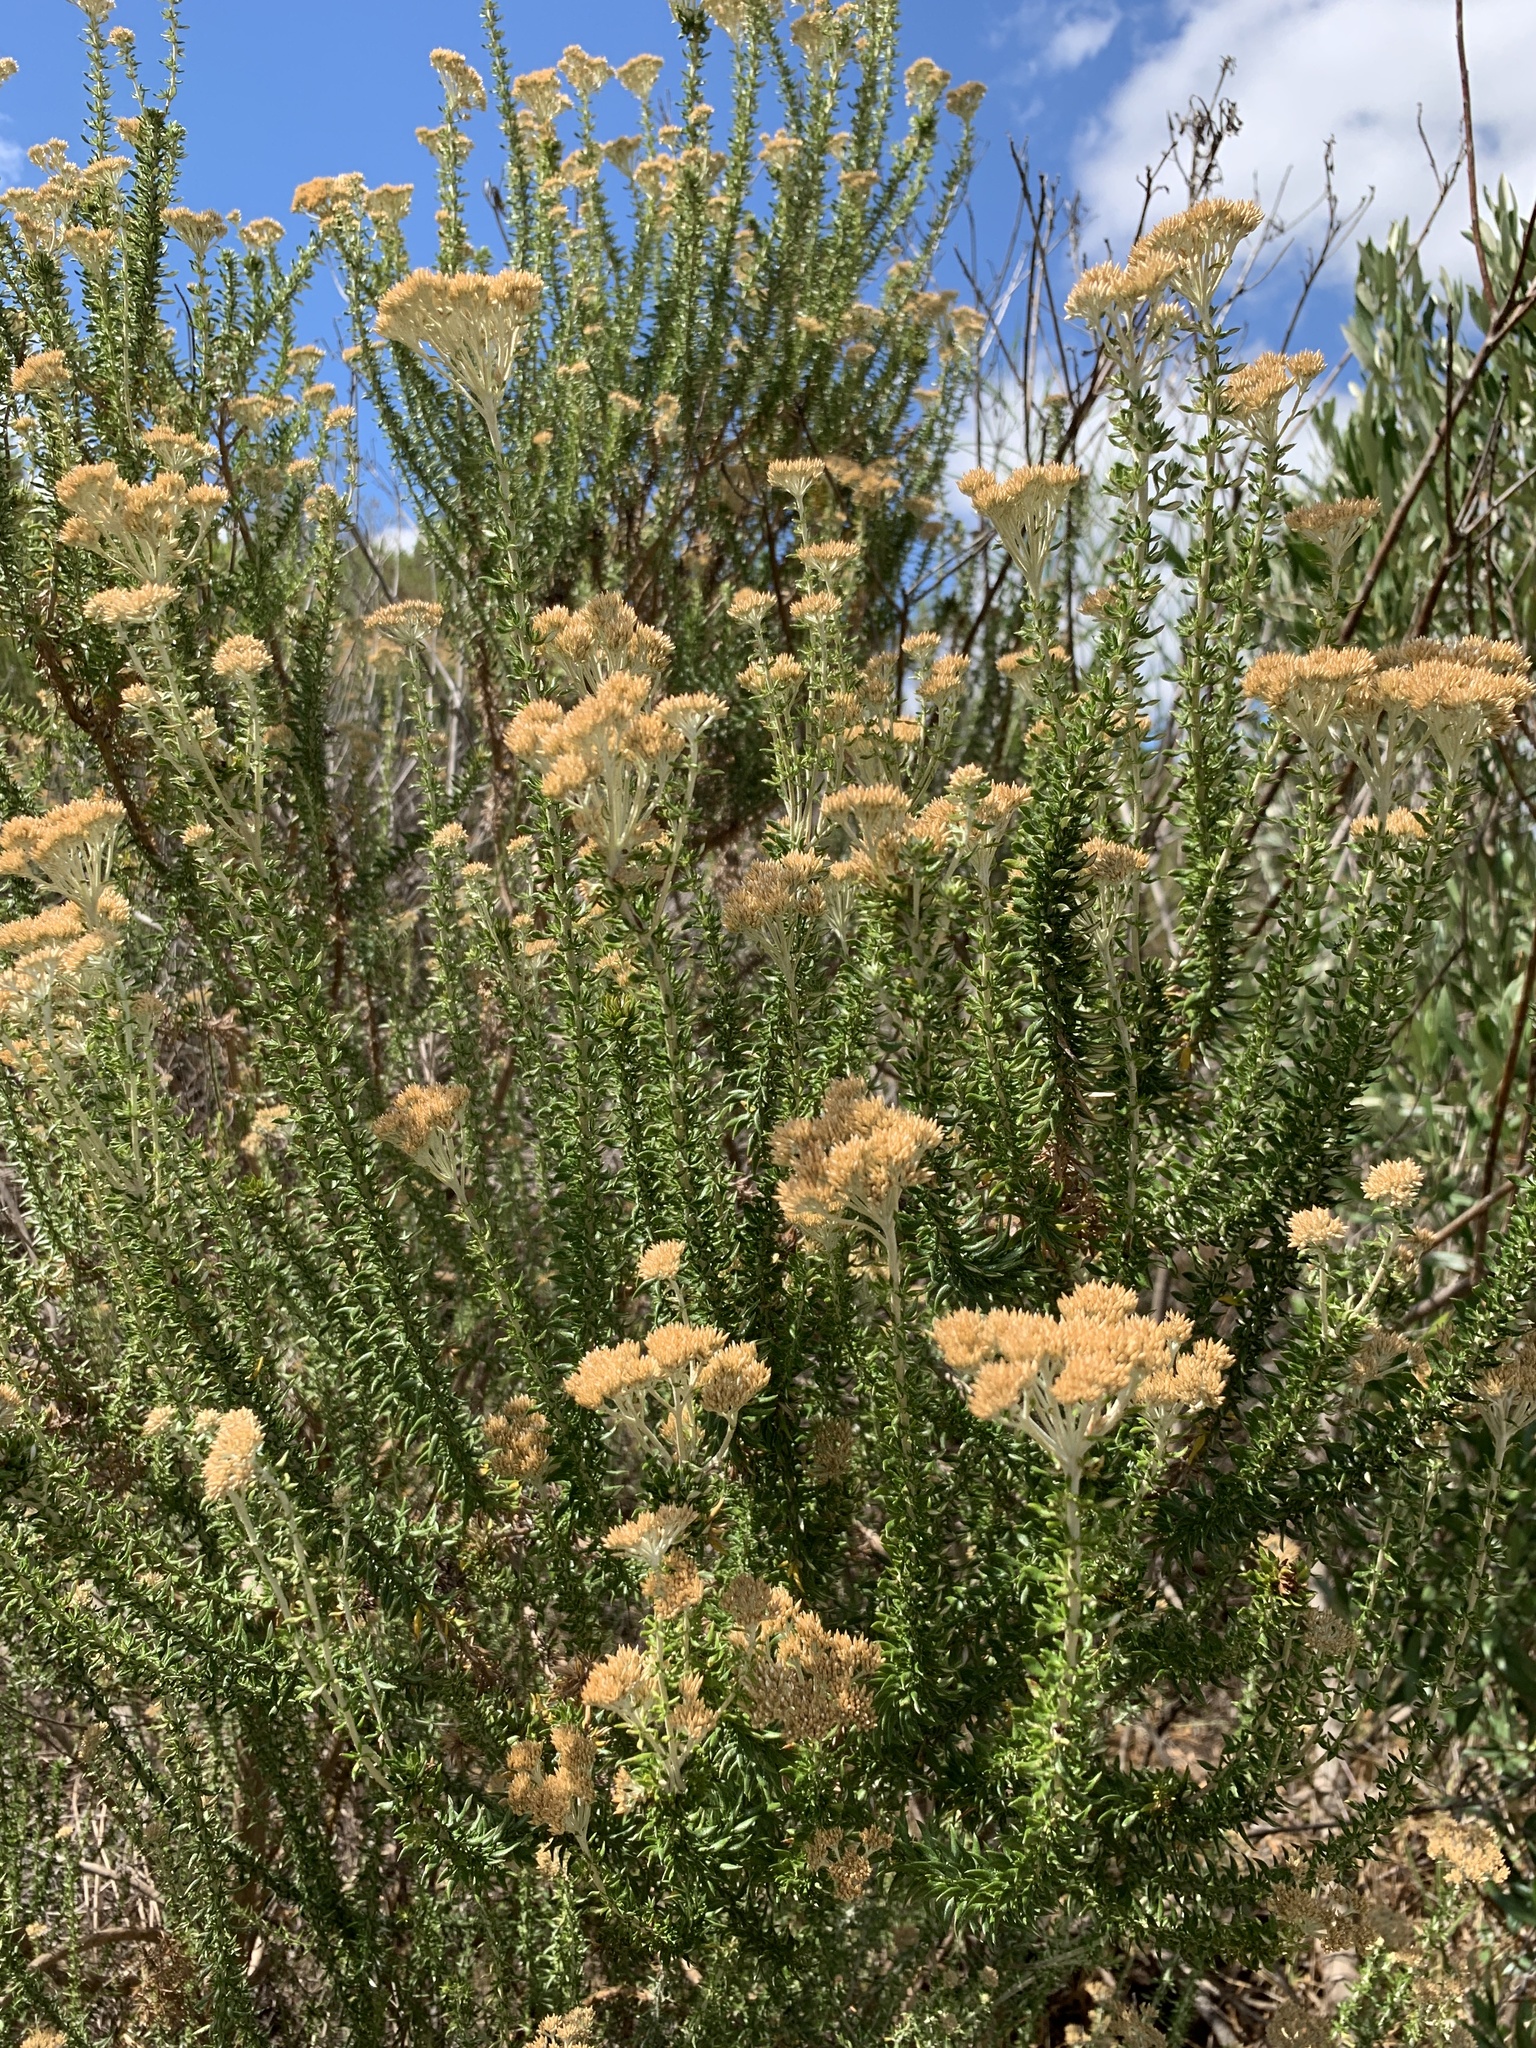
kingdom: Plantae
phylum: Tracheophyta
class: Magnoliopsida
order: Asterales
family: Asteraceae
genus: Metalasia
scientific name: Metalasia densa
